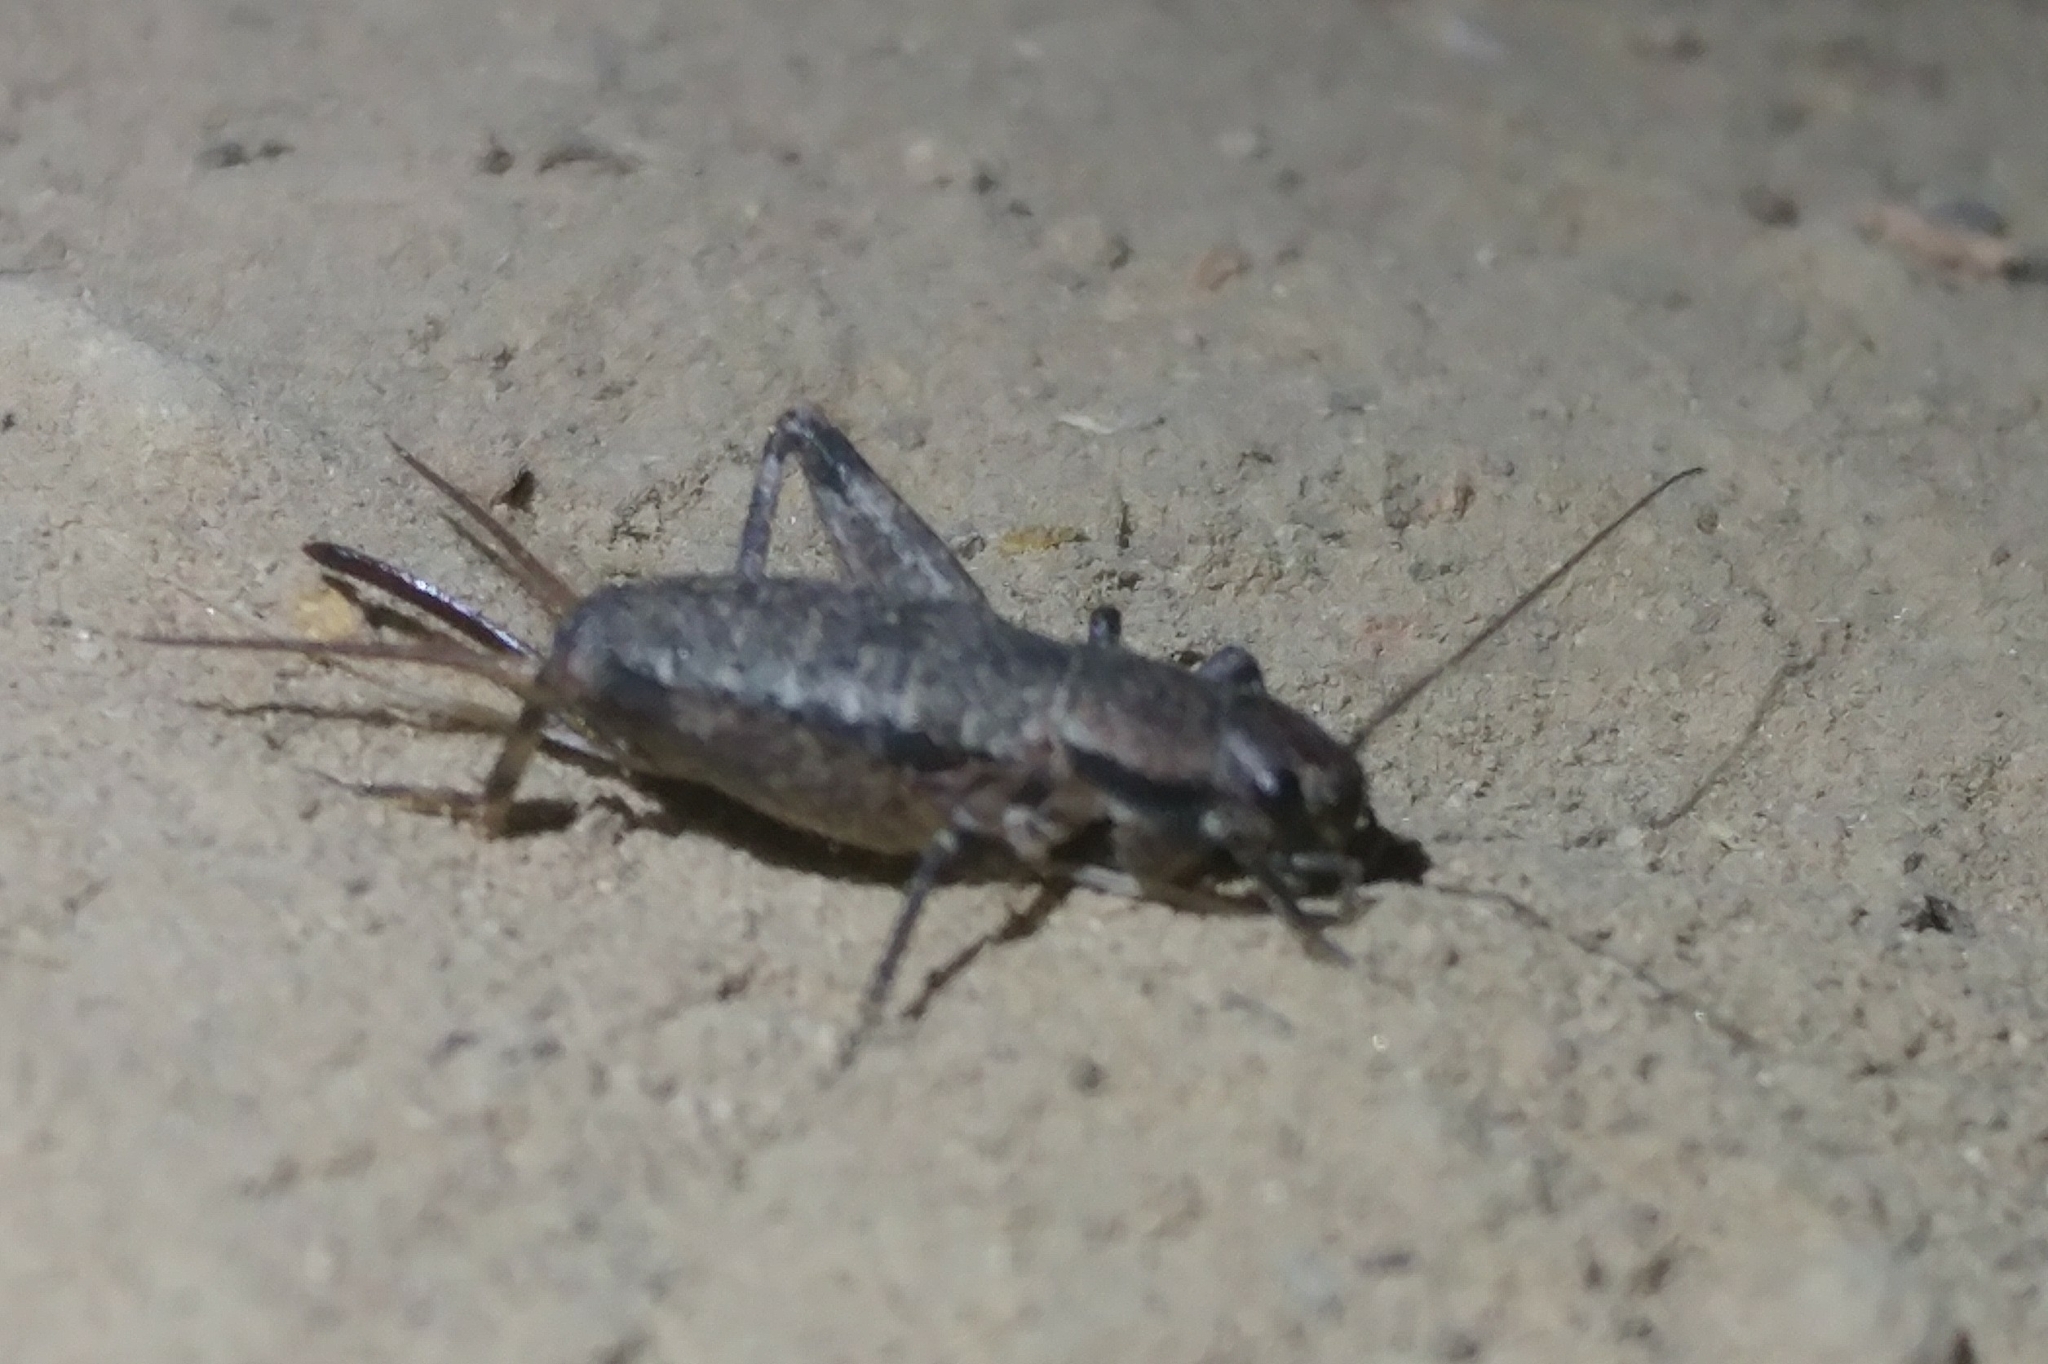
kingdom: Animalia
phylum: Arthropoda
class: Insecta
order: Orthoptera
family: Mogoplistidae
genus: Hoplosphyrum
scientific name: Hoplosphyrum boreale
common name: Long-winged scaly cricket
